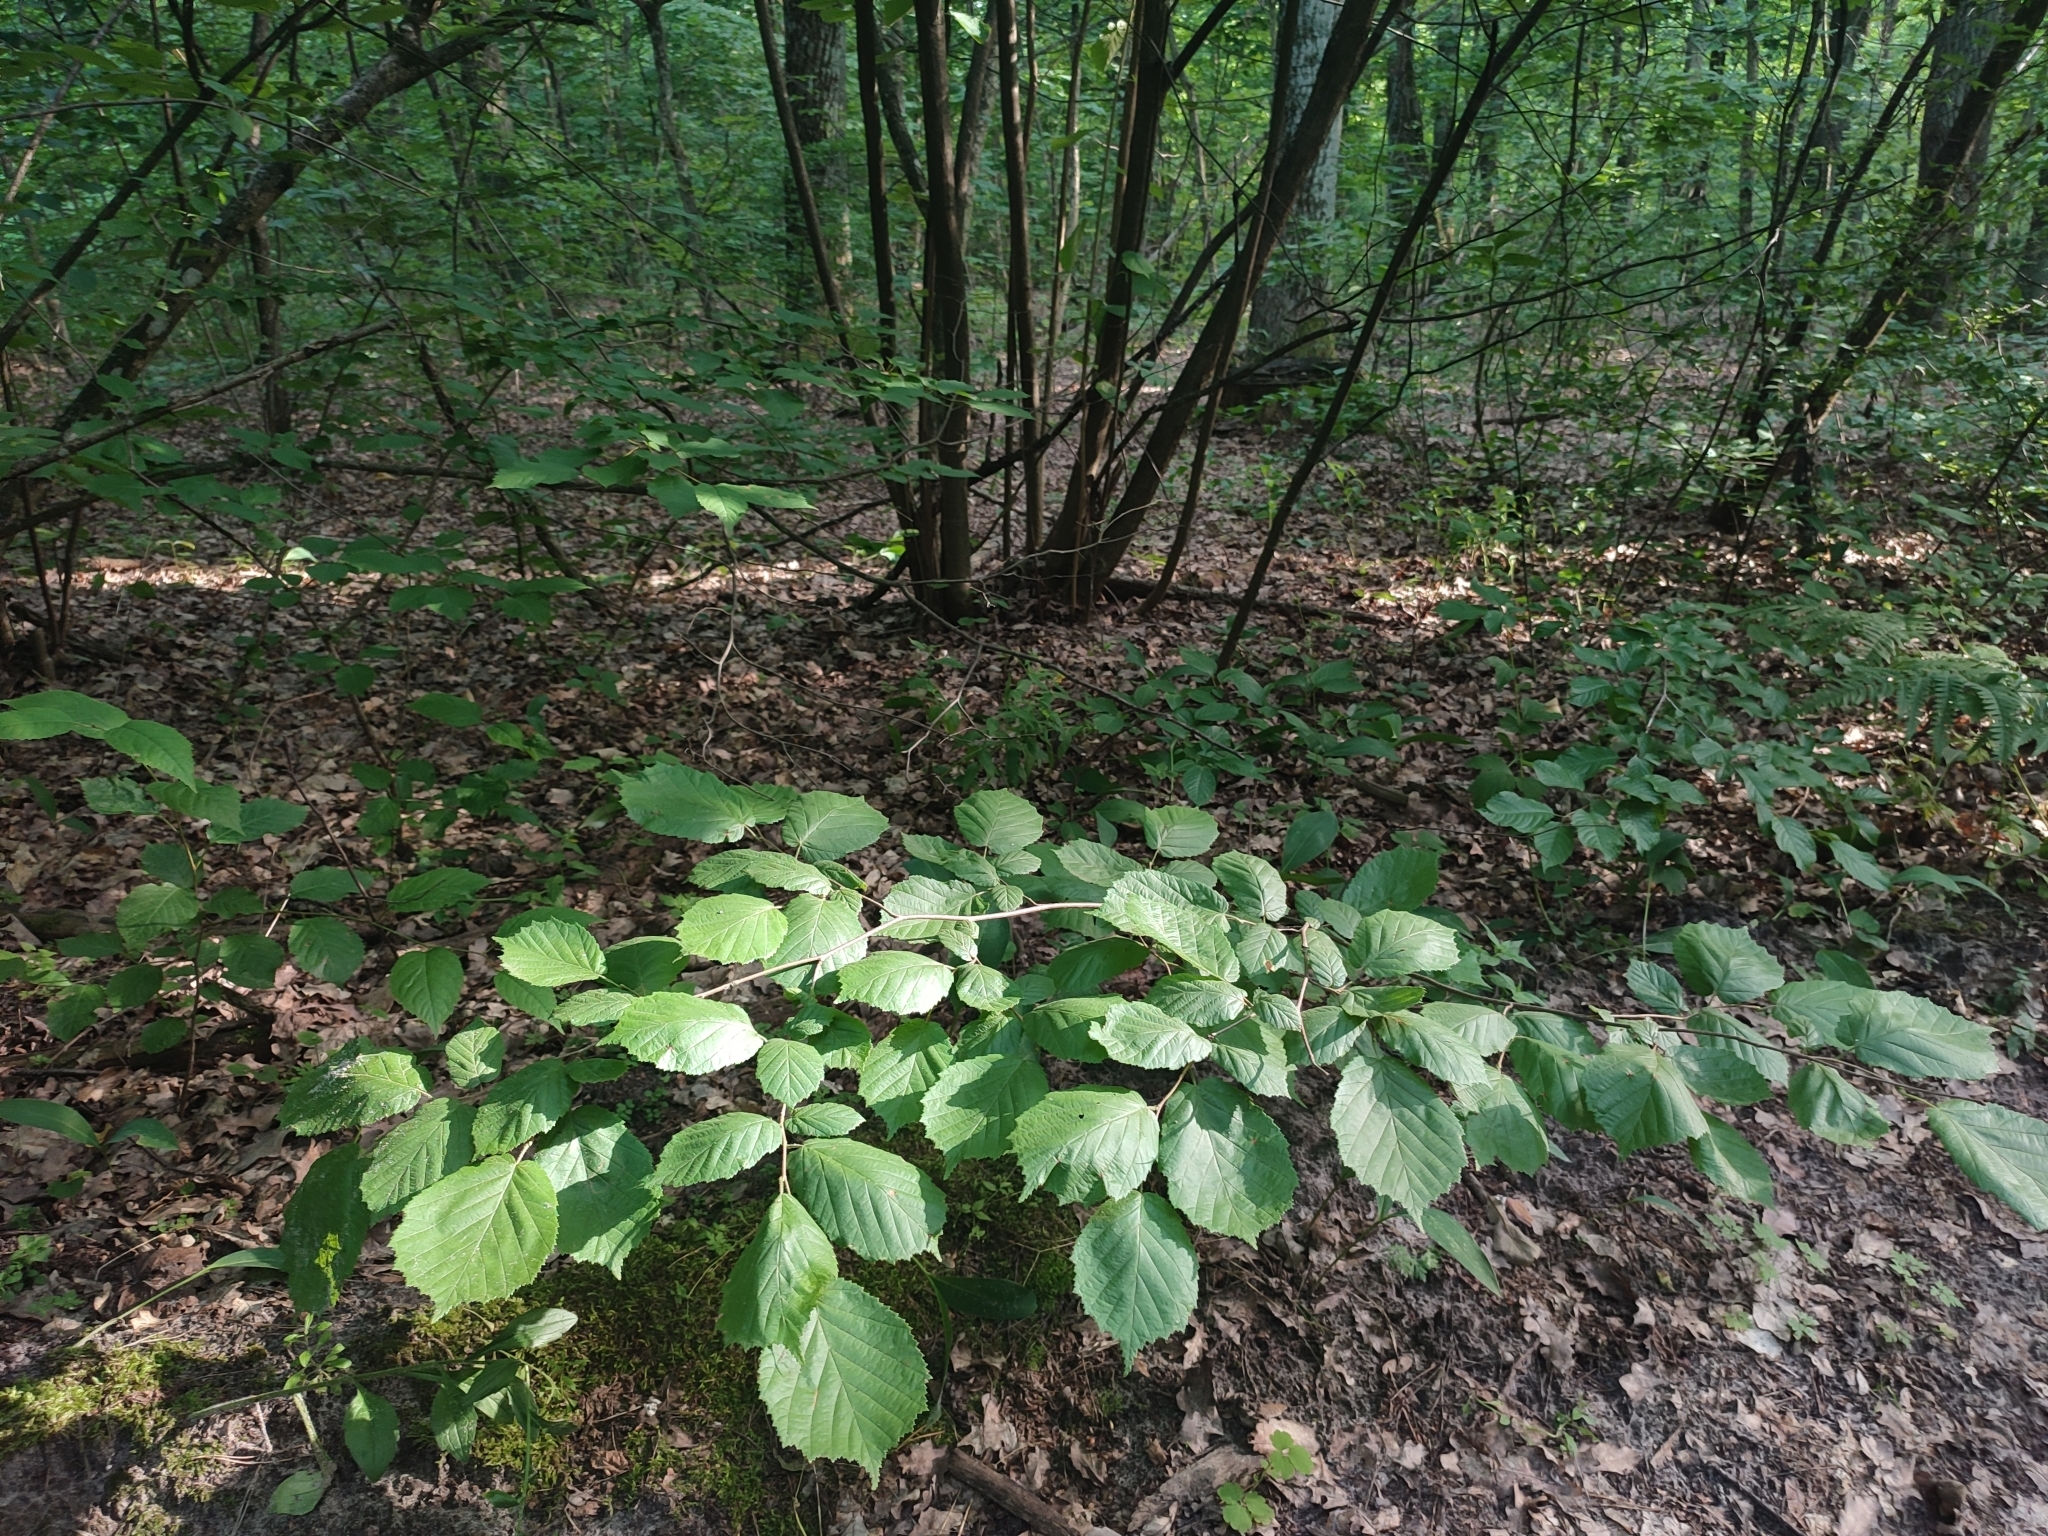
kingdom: Plantae
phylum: Tracheophyta
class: Magnoliopsida
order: Fagales
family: Betulaceae
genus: Corylus
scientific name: Corylus avellana
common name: European hazel
